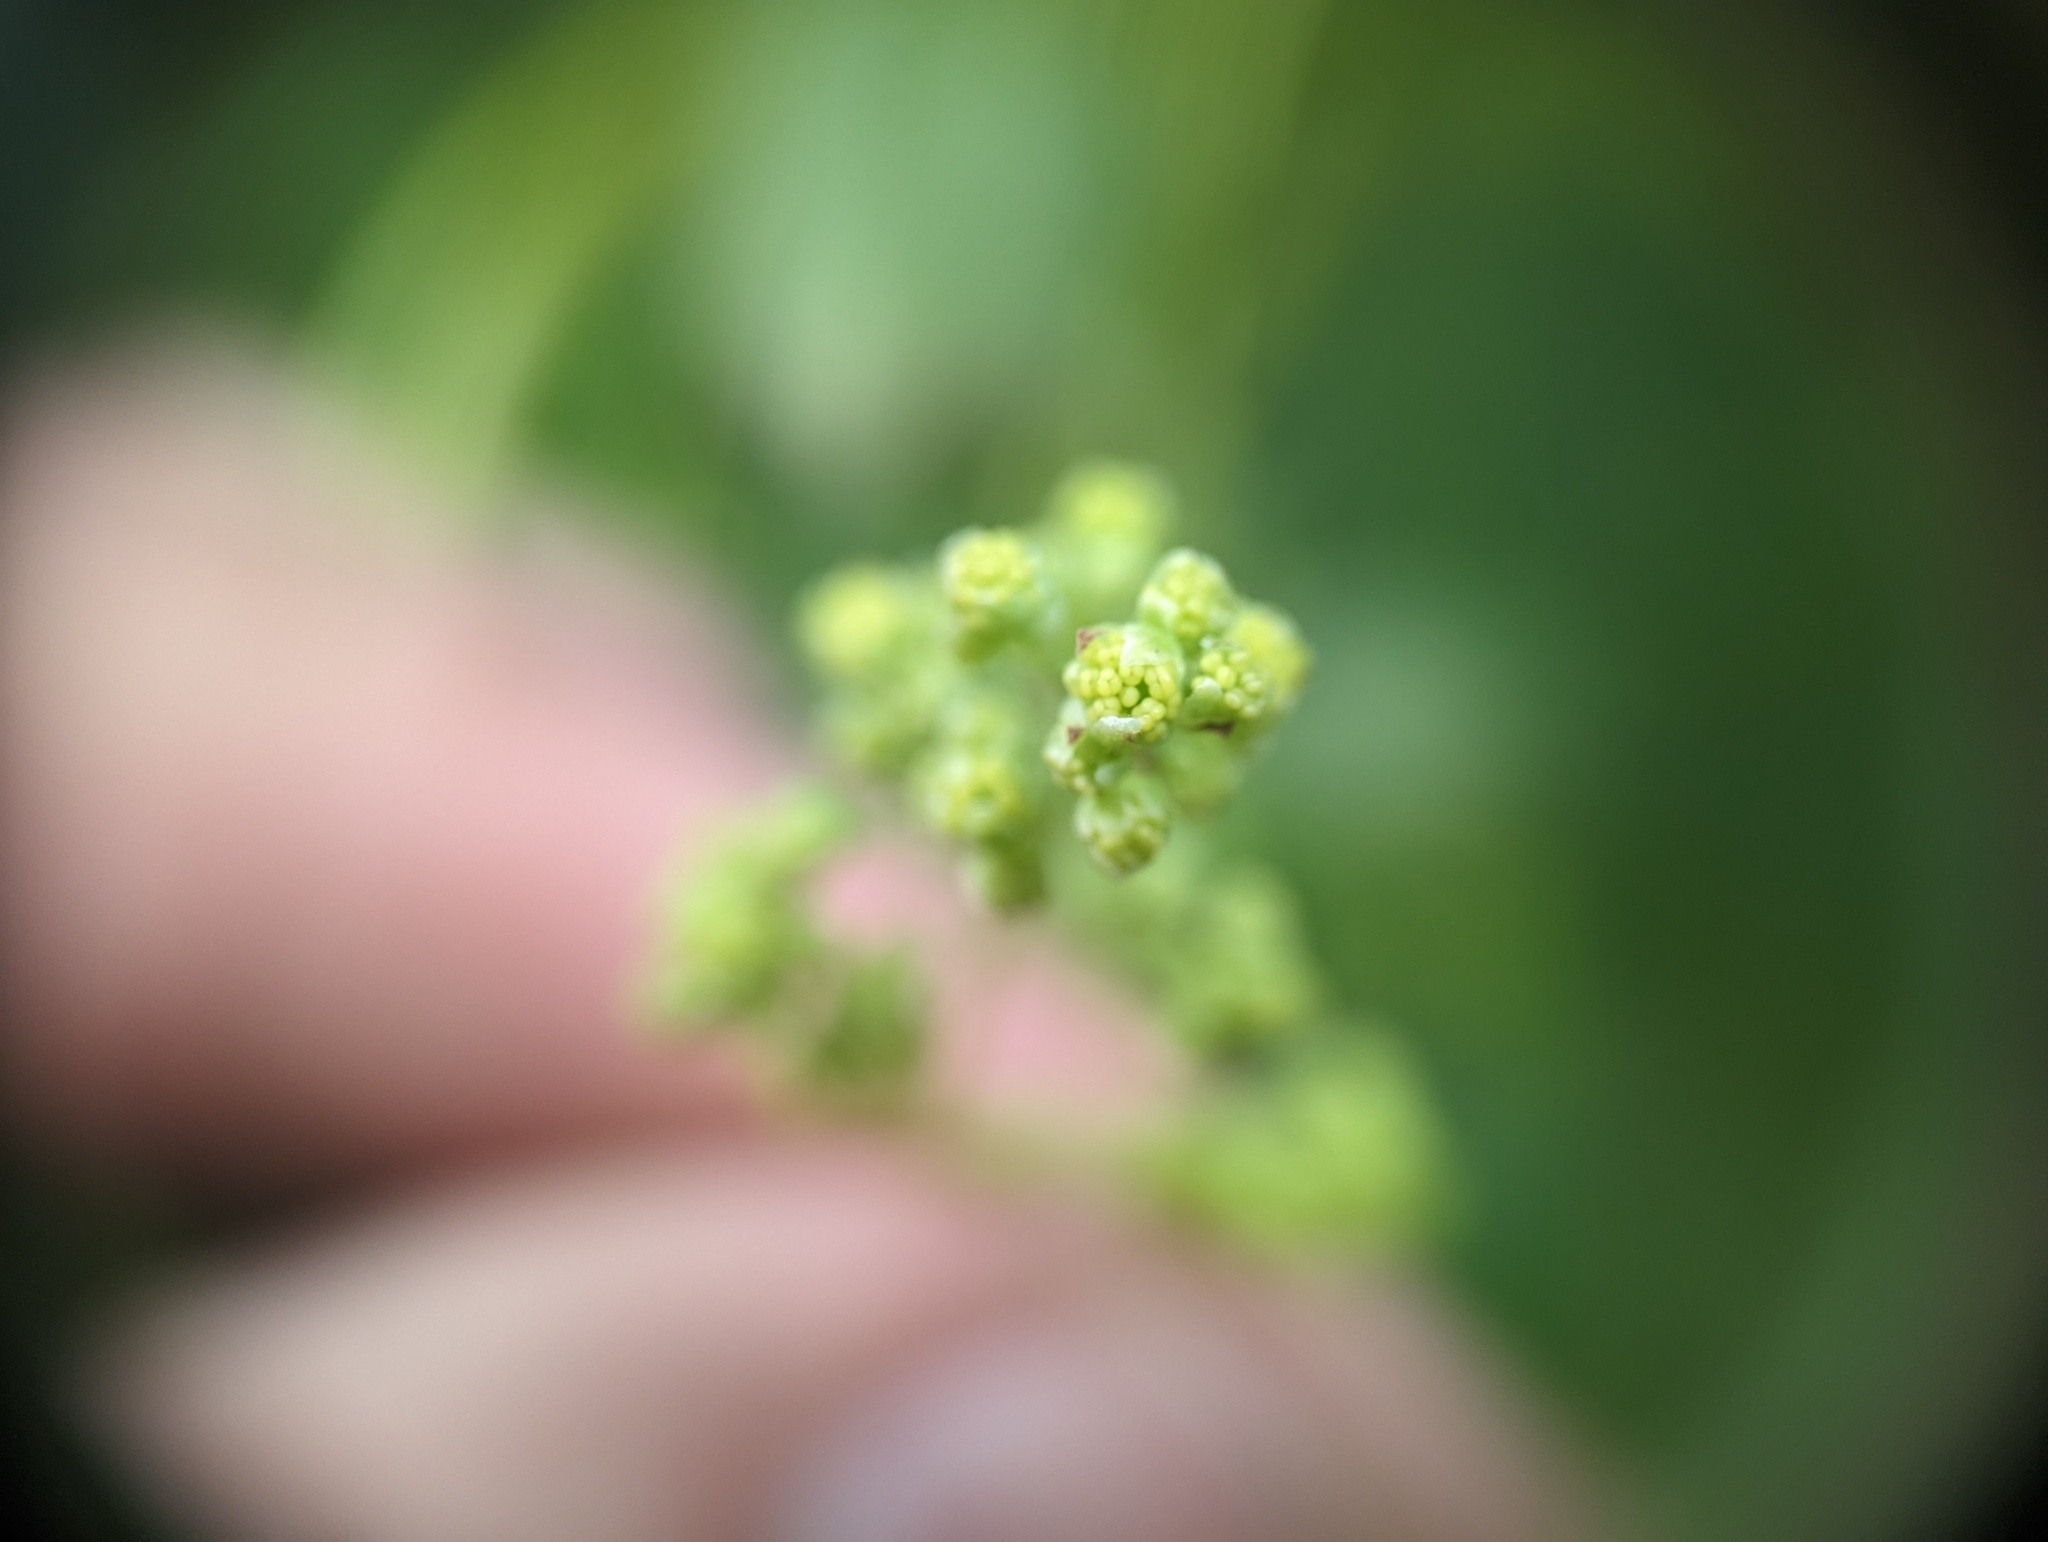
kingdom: Plantae
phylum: Tracheophyta
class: Magnoliopsida
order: Ranunculales
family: Menispermaceae
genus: Menispermum
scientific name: Menispermum canadense
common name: Moonseed
